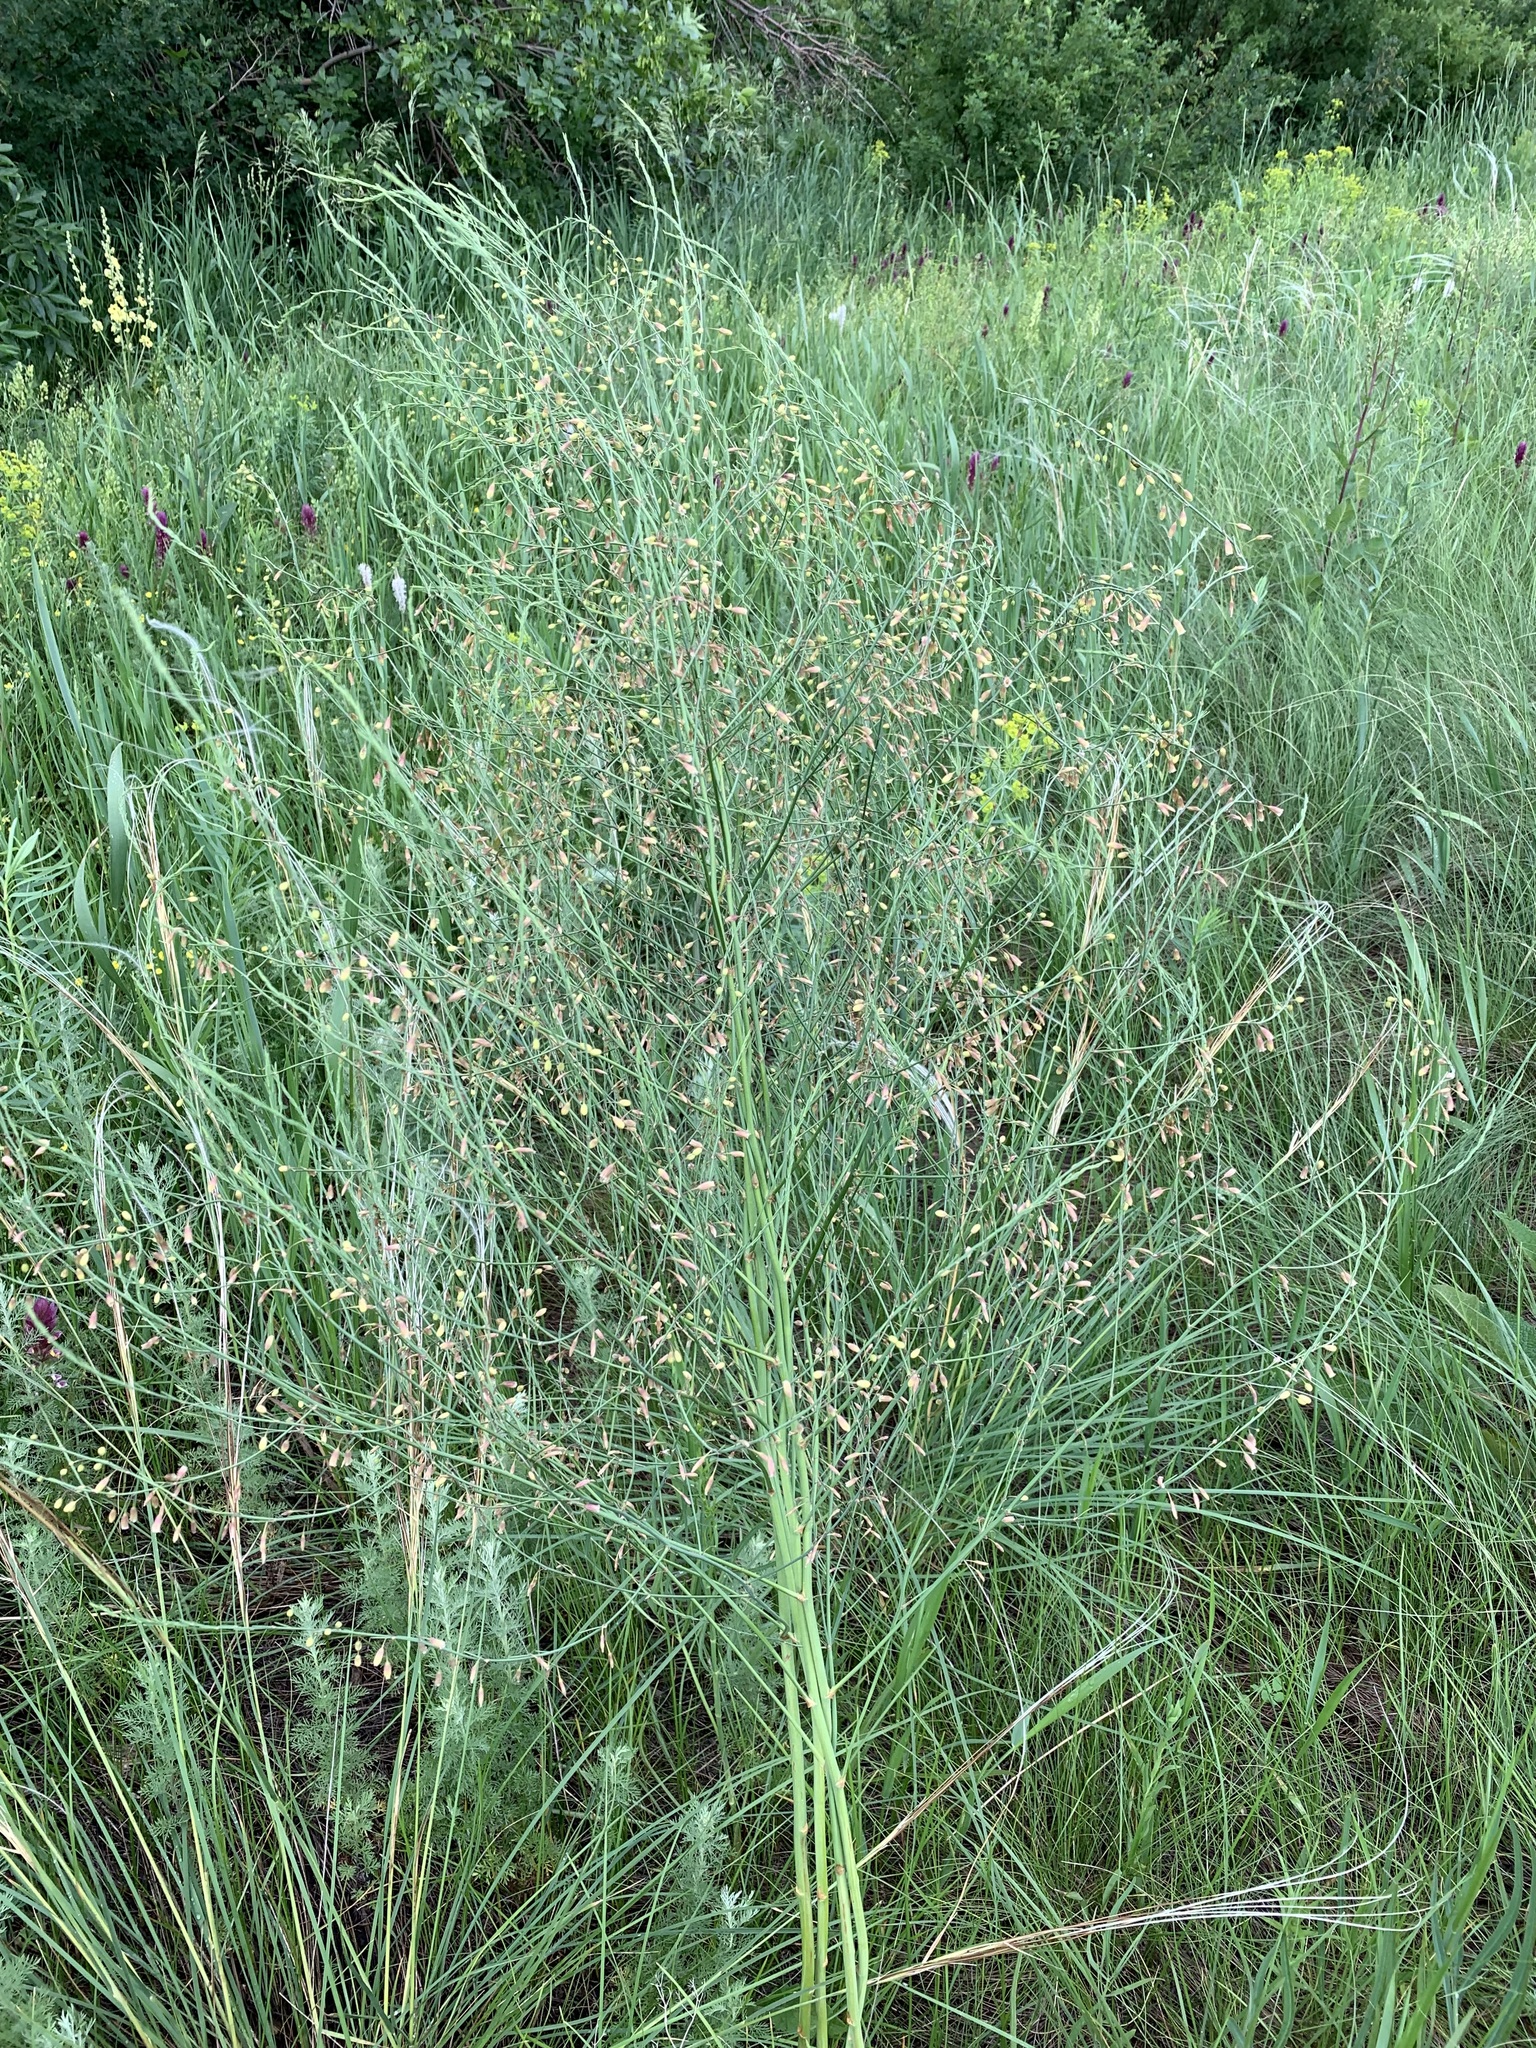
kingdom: Plantae
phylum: Tracheophyta
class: Liliopsida
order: Asparagales
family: Asparagaceae
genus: Asparagus
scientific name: Asparagus officinalis
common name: Garden asparagus
